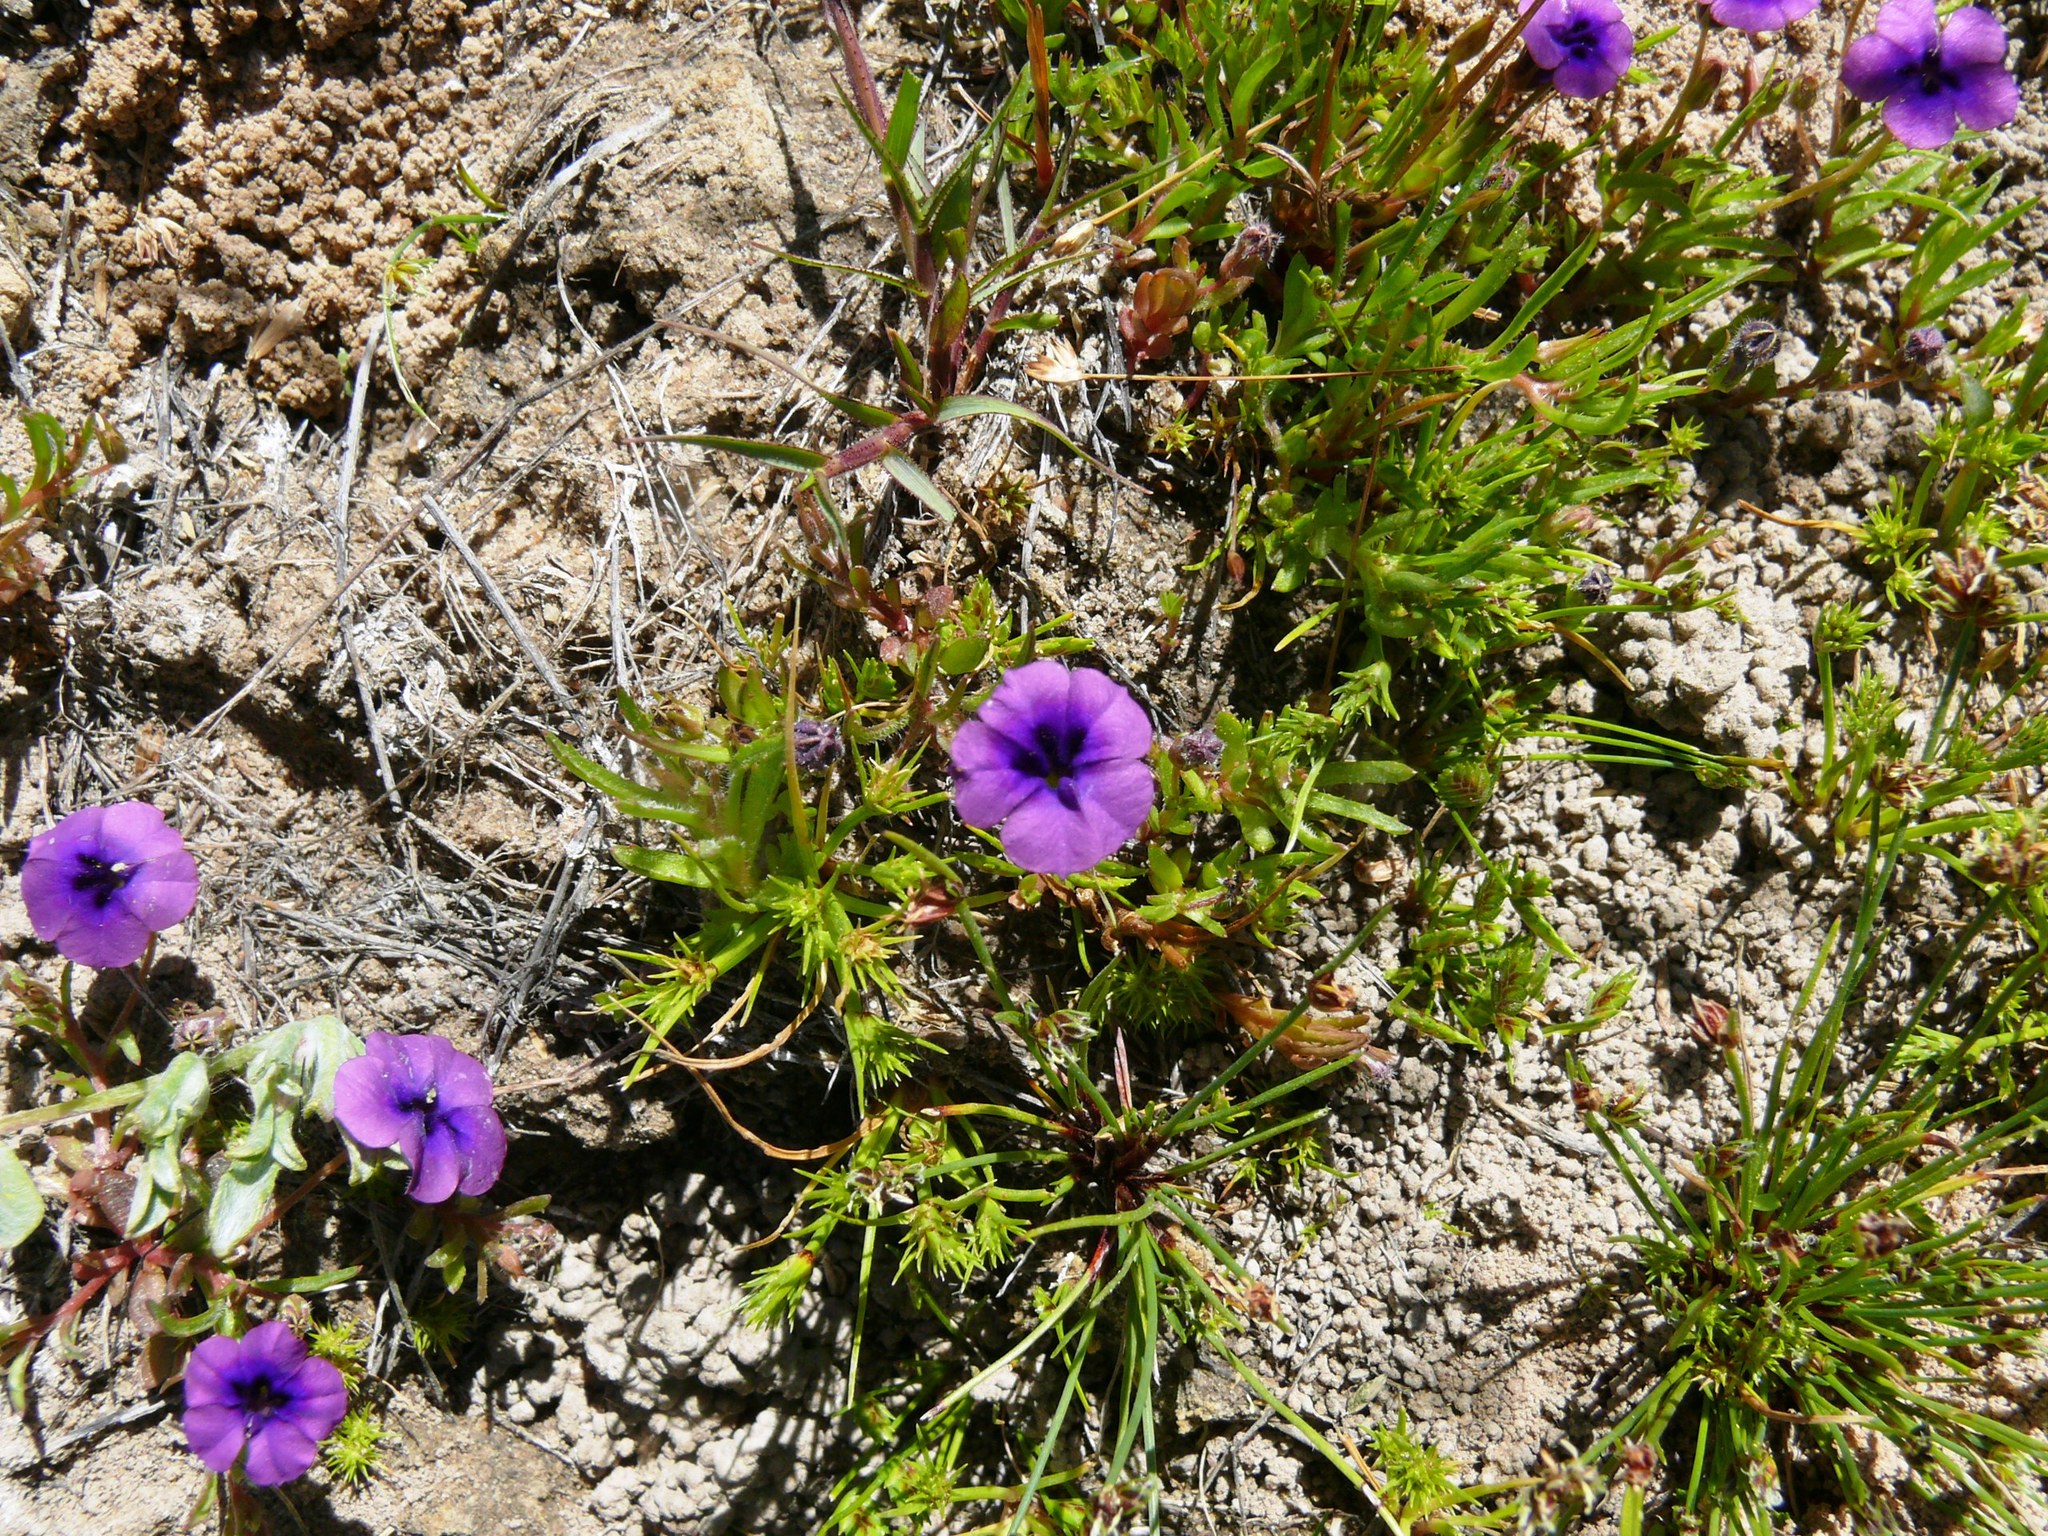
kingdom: Plantae
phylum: Tracheophyta
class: Magnoliopsida
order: Asterales
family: Campanulaceae
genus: Monopsis
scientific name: Monopsis debilis
